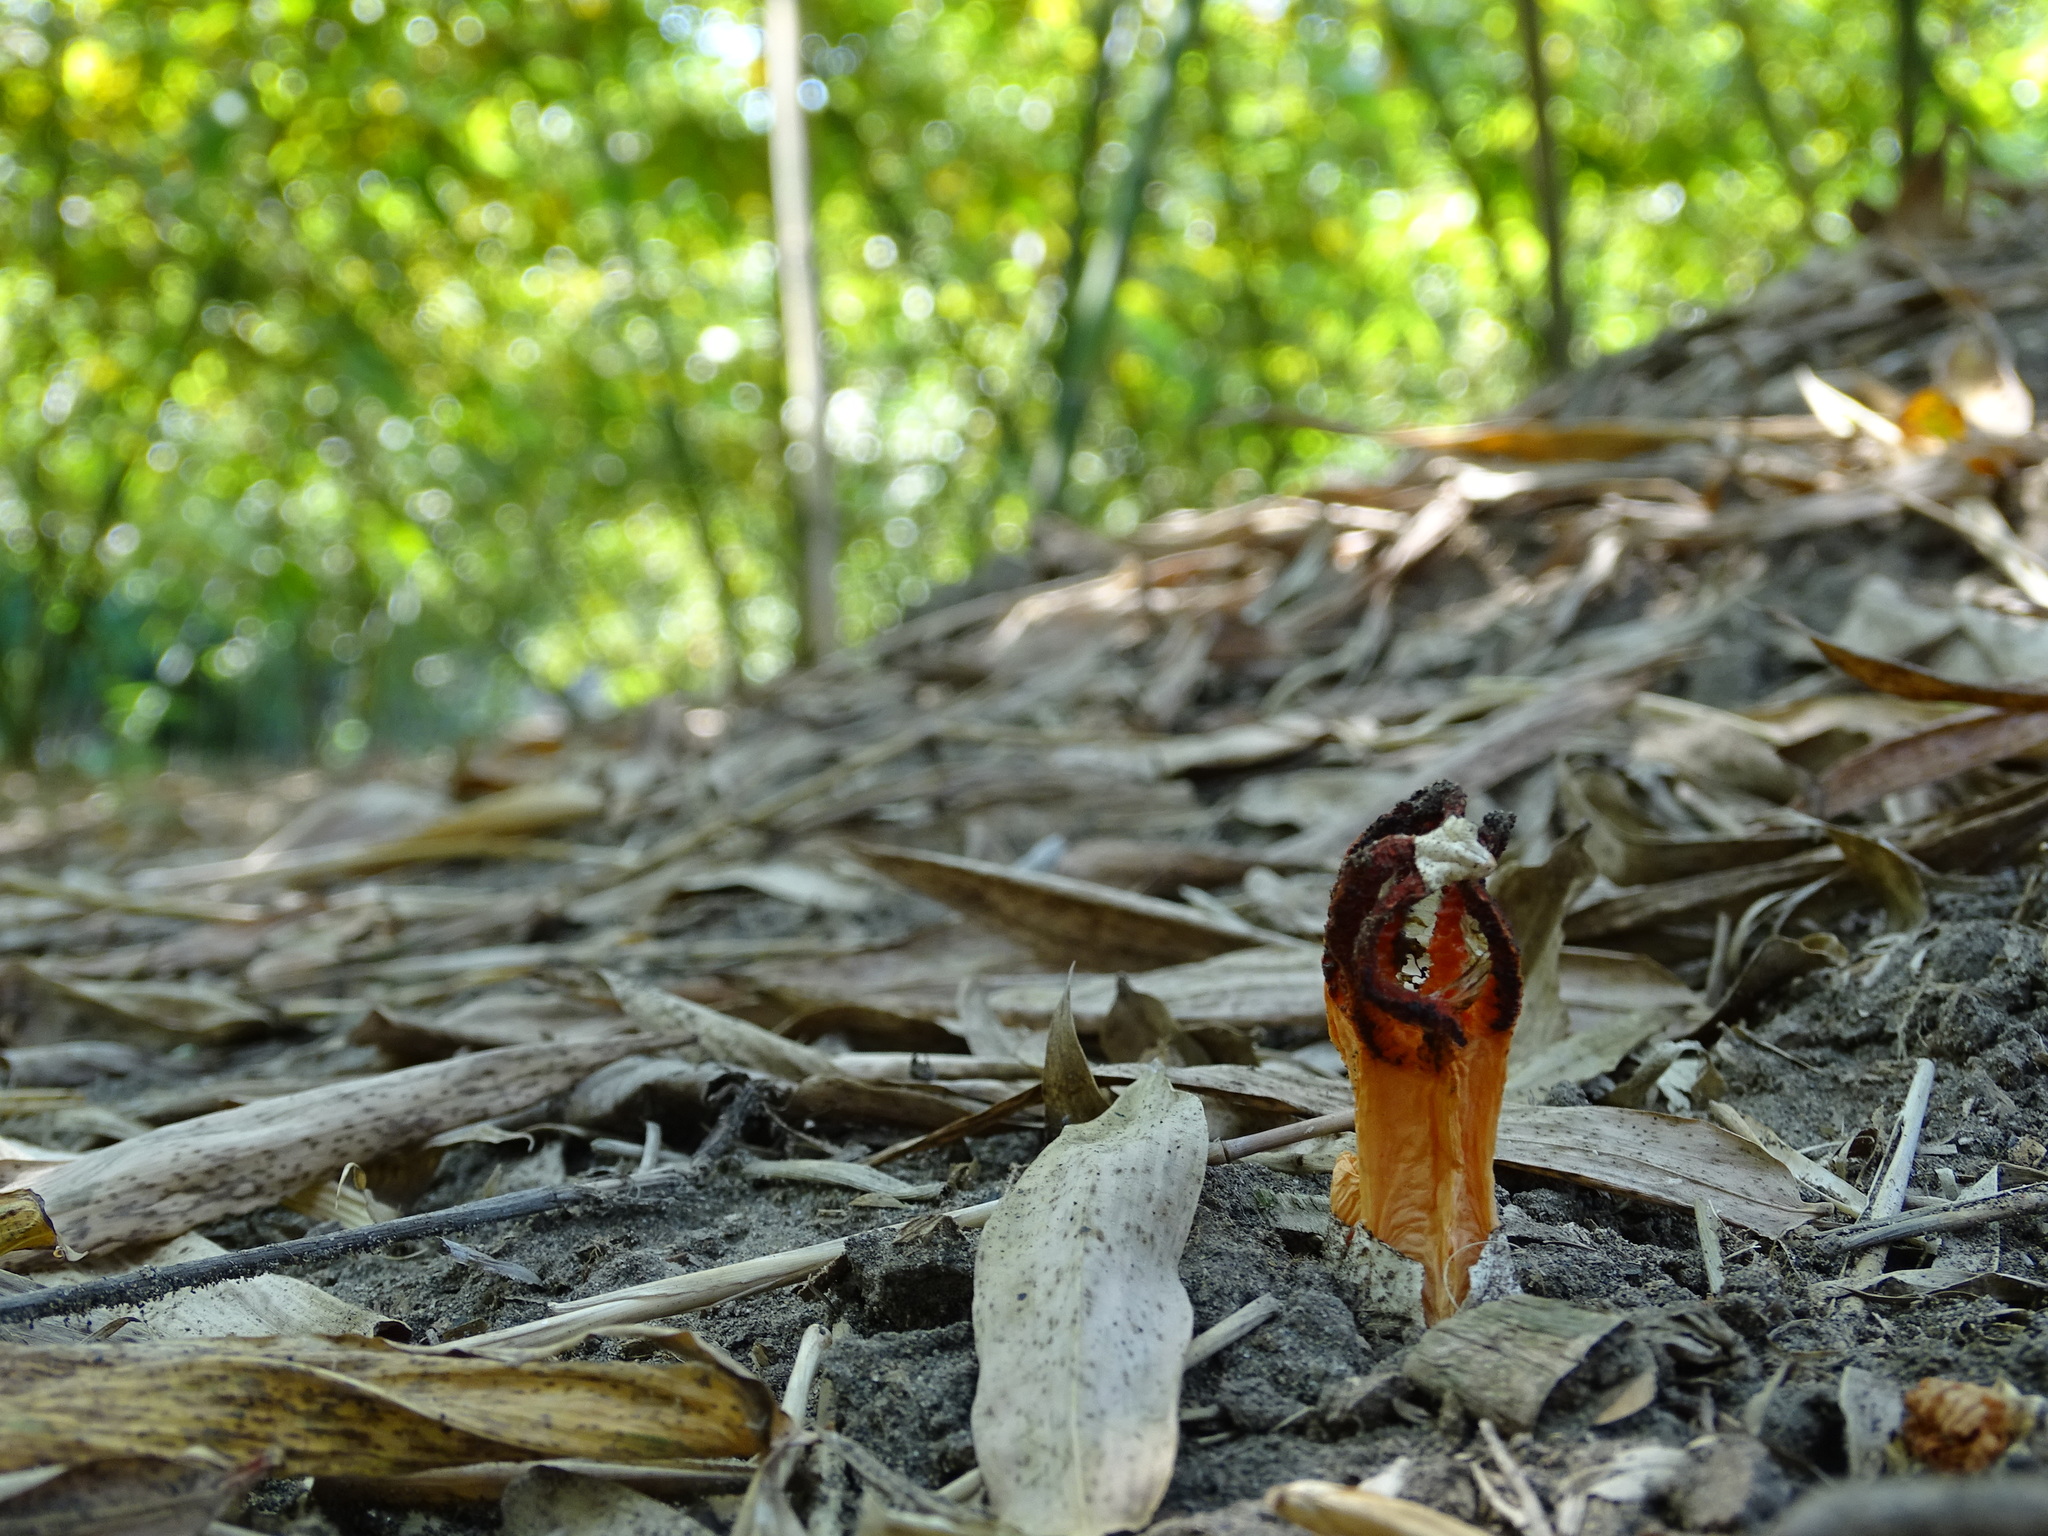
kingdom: Fungi
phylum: Basidiomycota
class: Agaricomycetes
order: Phallales
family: Phallaceae
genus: Lysurus
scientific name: Lysurus mokusin
